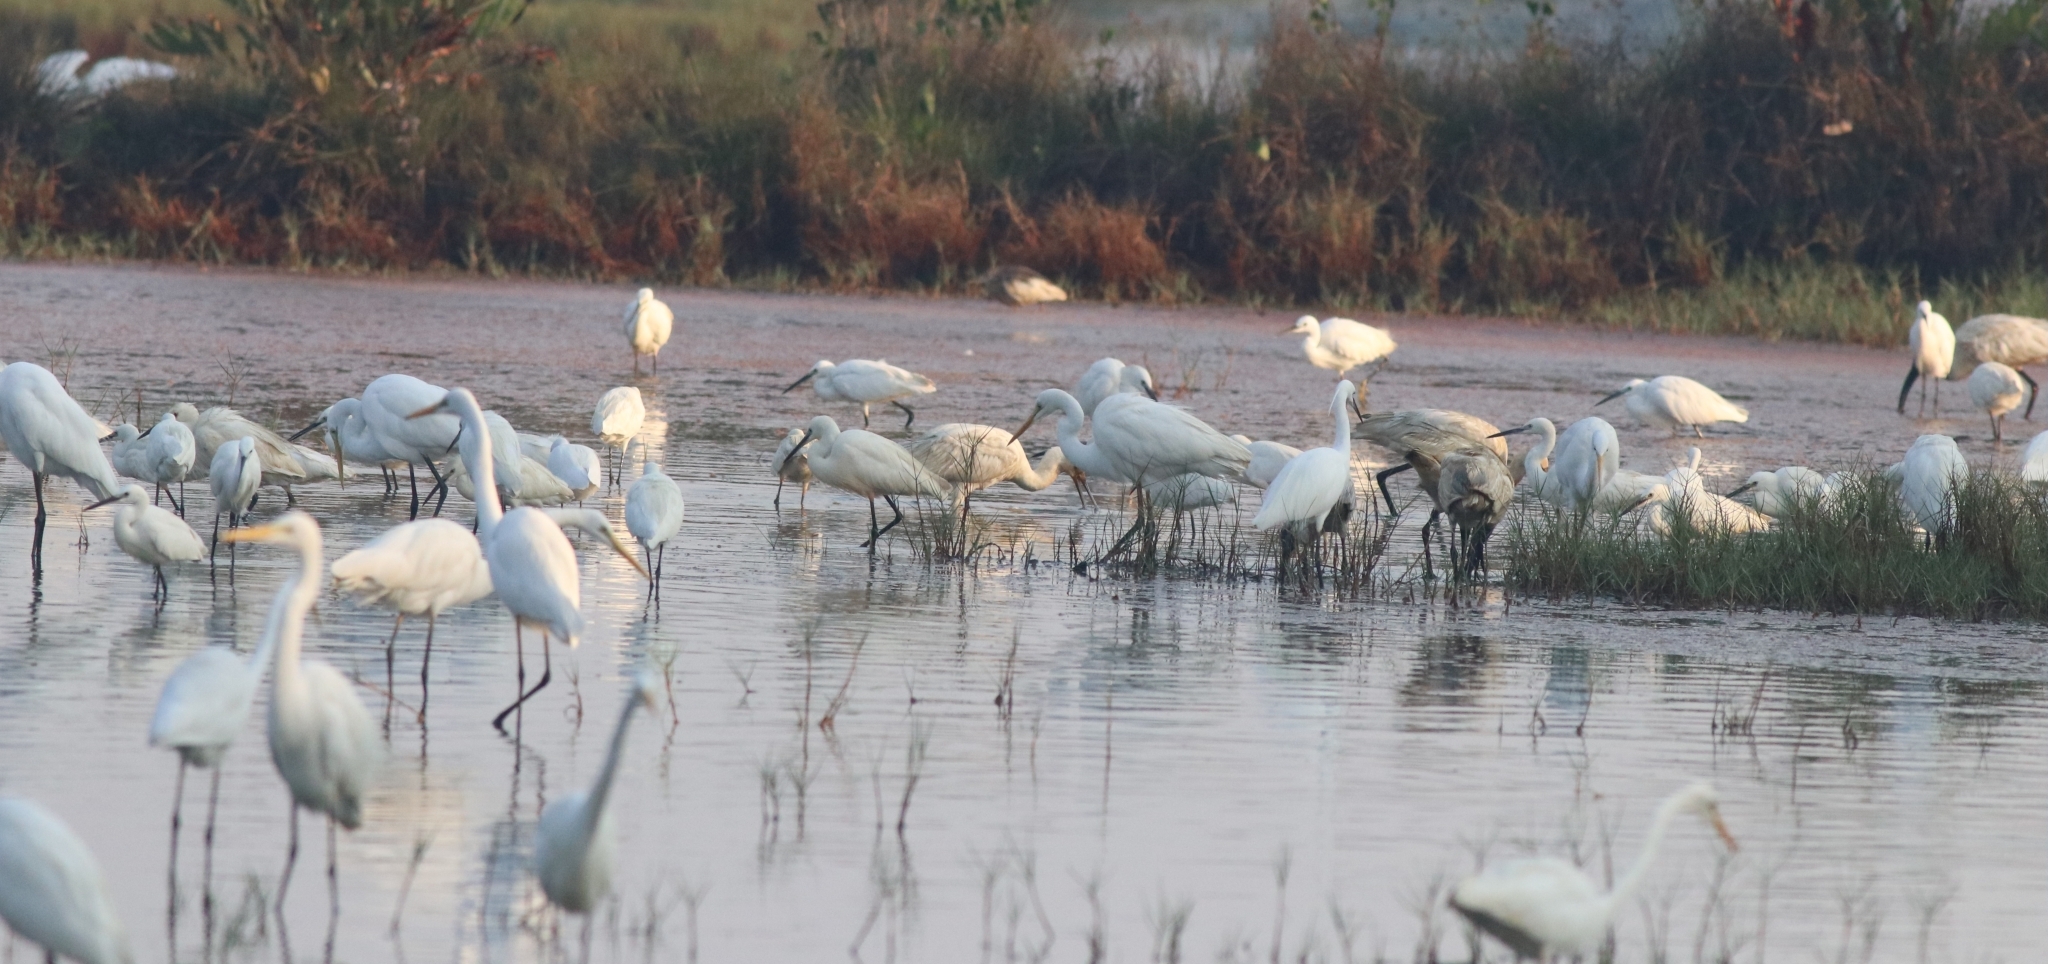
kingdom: Animalia
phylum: Chordata
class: Aves
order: Pelecaniformes
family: Ardeidae
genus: Egretta
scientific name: Egretta garzetta
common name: Little egret
